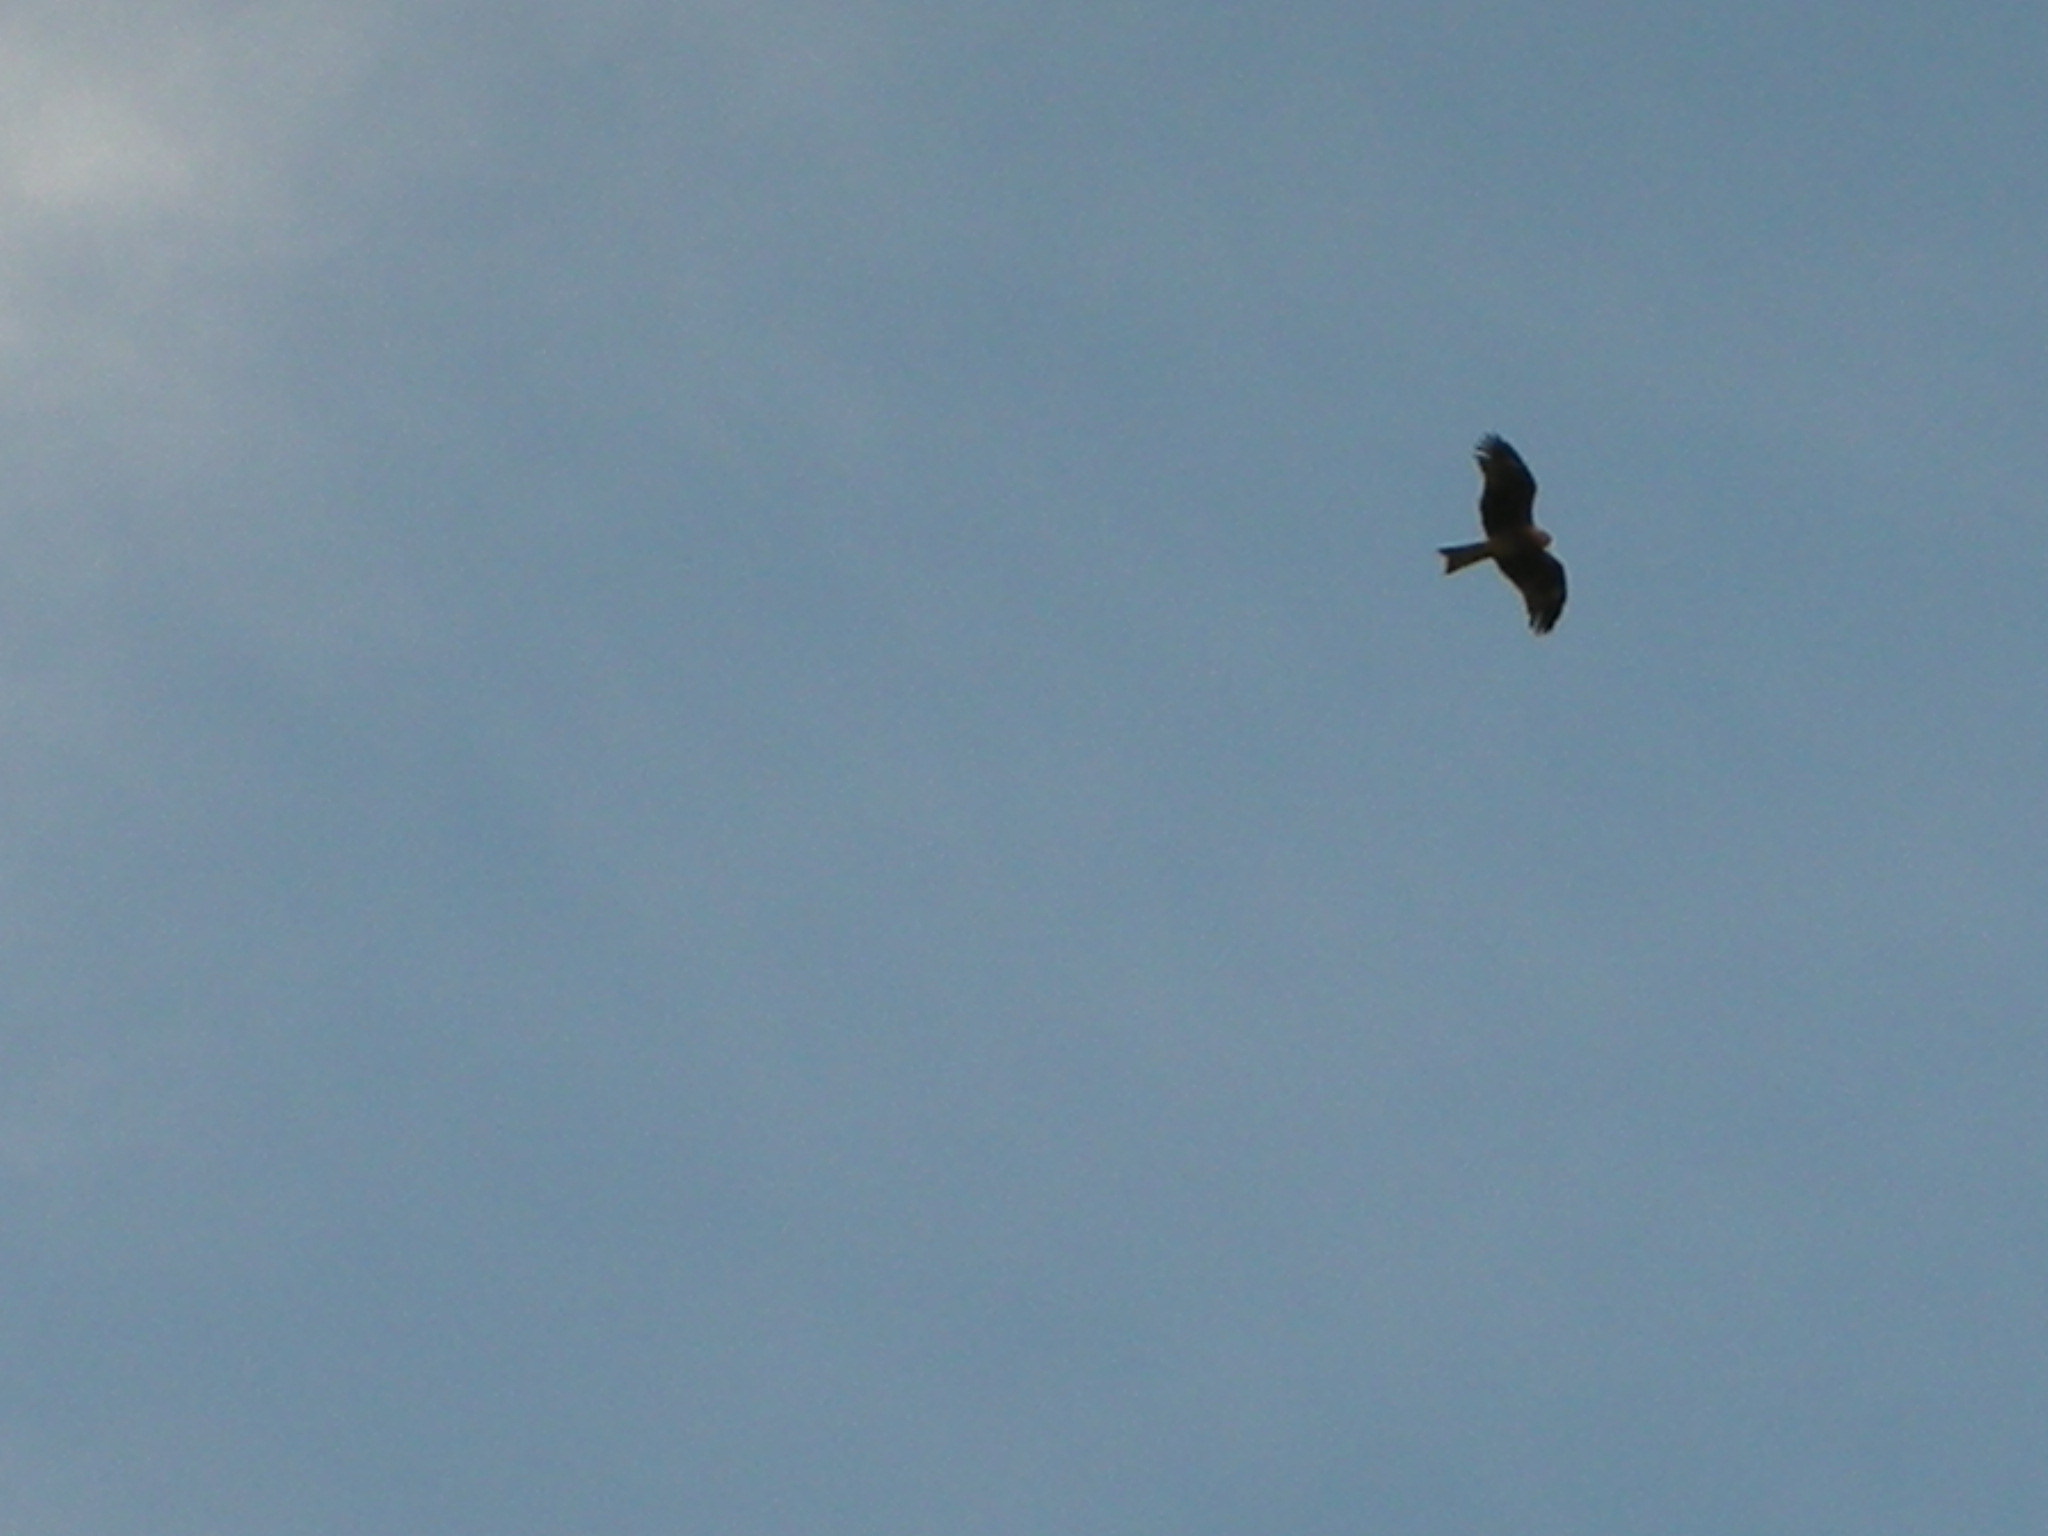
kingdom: Animalia
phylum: Chordata
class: Aves
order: Accipitriformes
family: Accipitridae
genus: Milvus
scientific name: Milvus migrans
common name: Black kite
